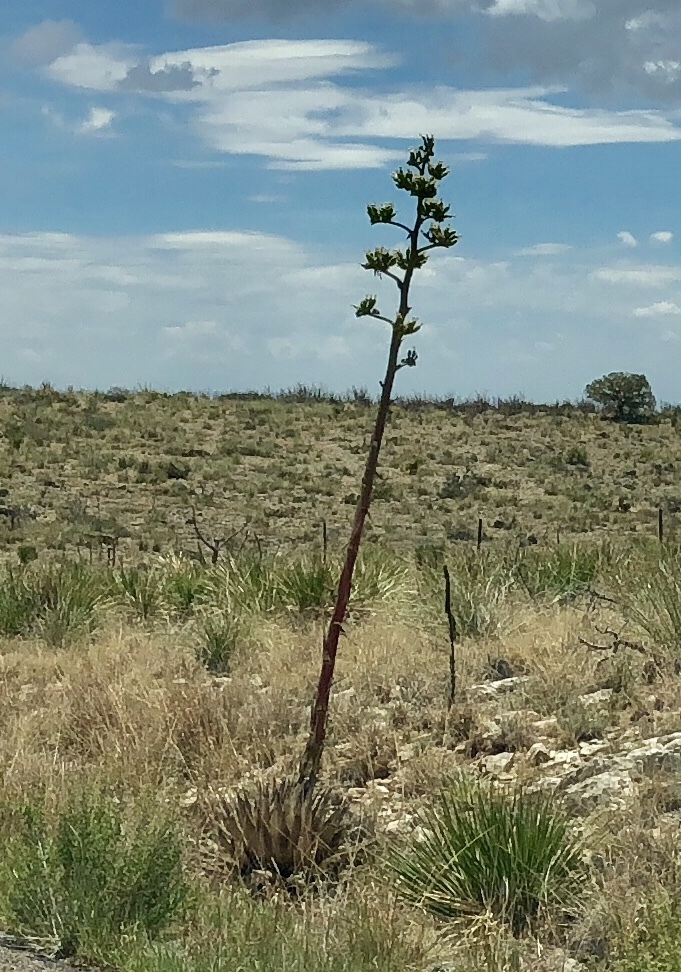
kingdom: Plantae
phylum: Tracheophyta
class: Liliopsida
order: Asparagales
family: Asparagaceae
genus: Agave
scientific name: Agave parryi
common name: Parry's agave
